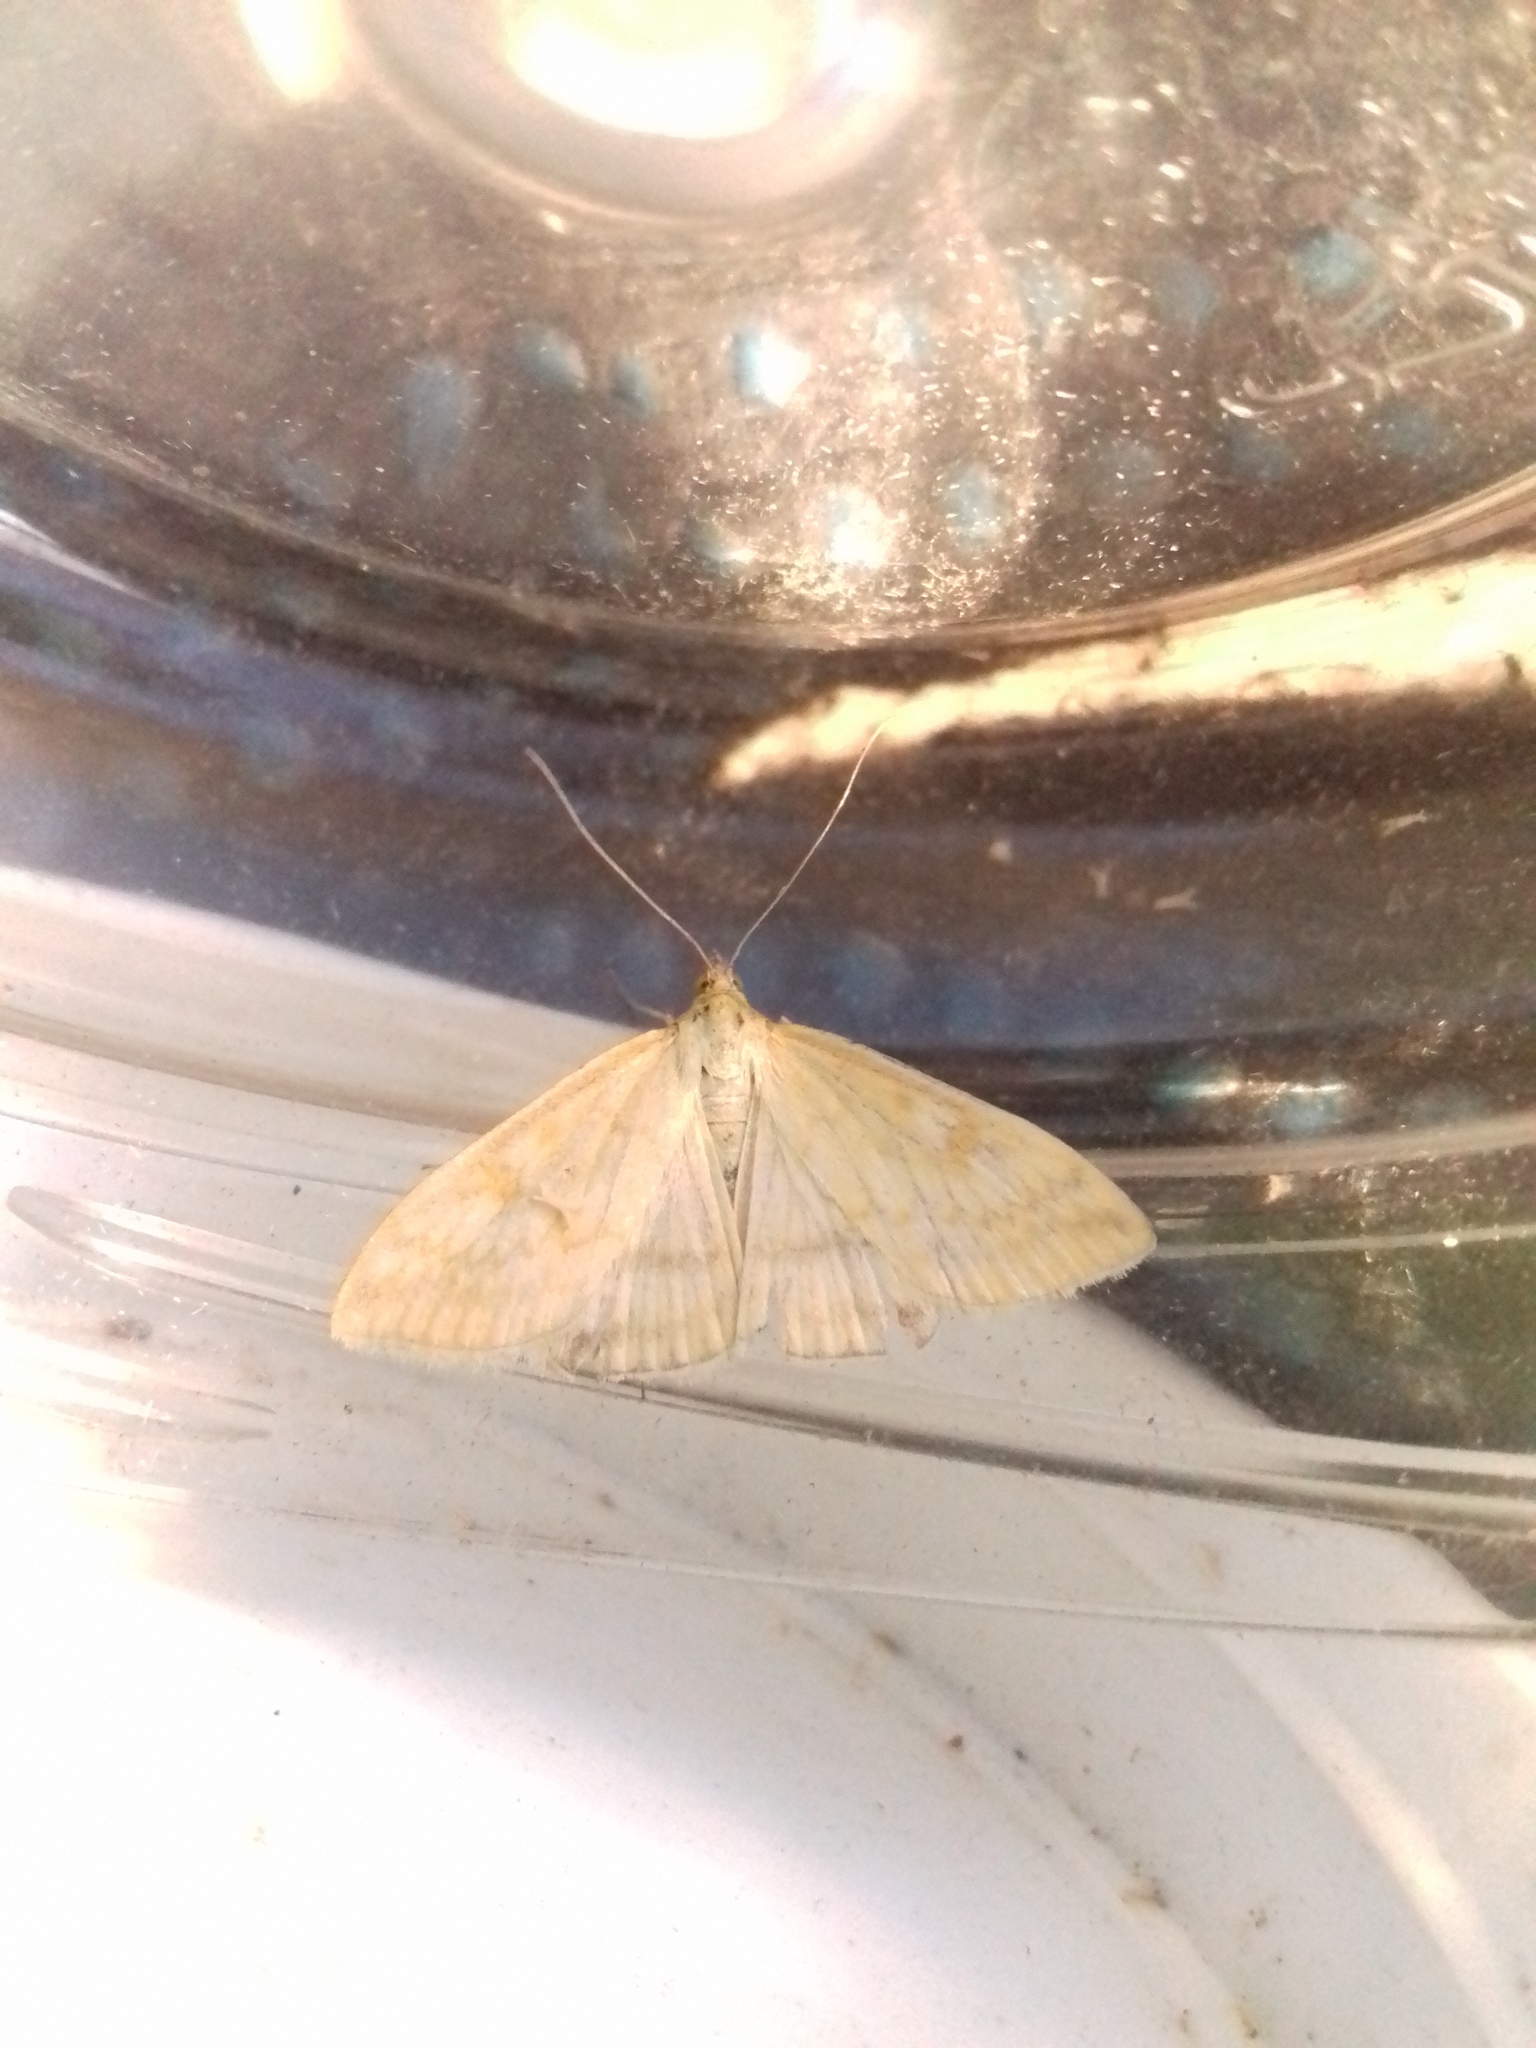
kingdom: Animalia
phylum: Arthropoda
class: Insecta
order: Lepidoptera
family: Crambidae
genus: Sitochroa
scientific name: Sitochroa verticalis
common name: Lesser pearl
